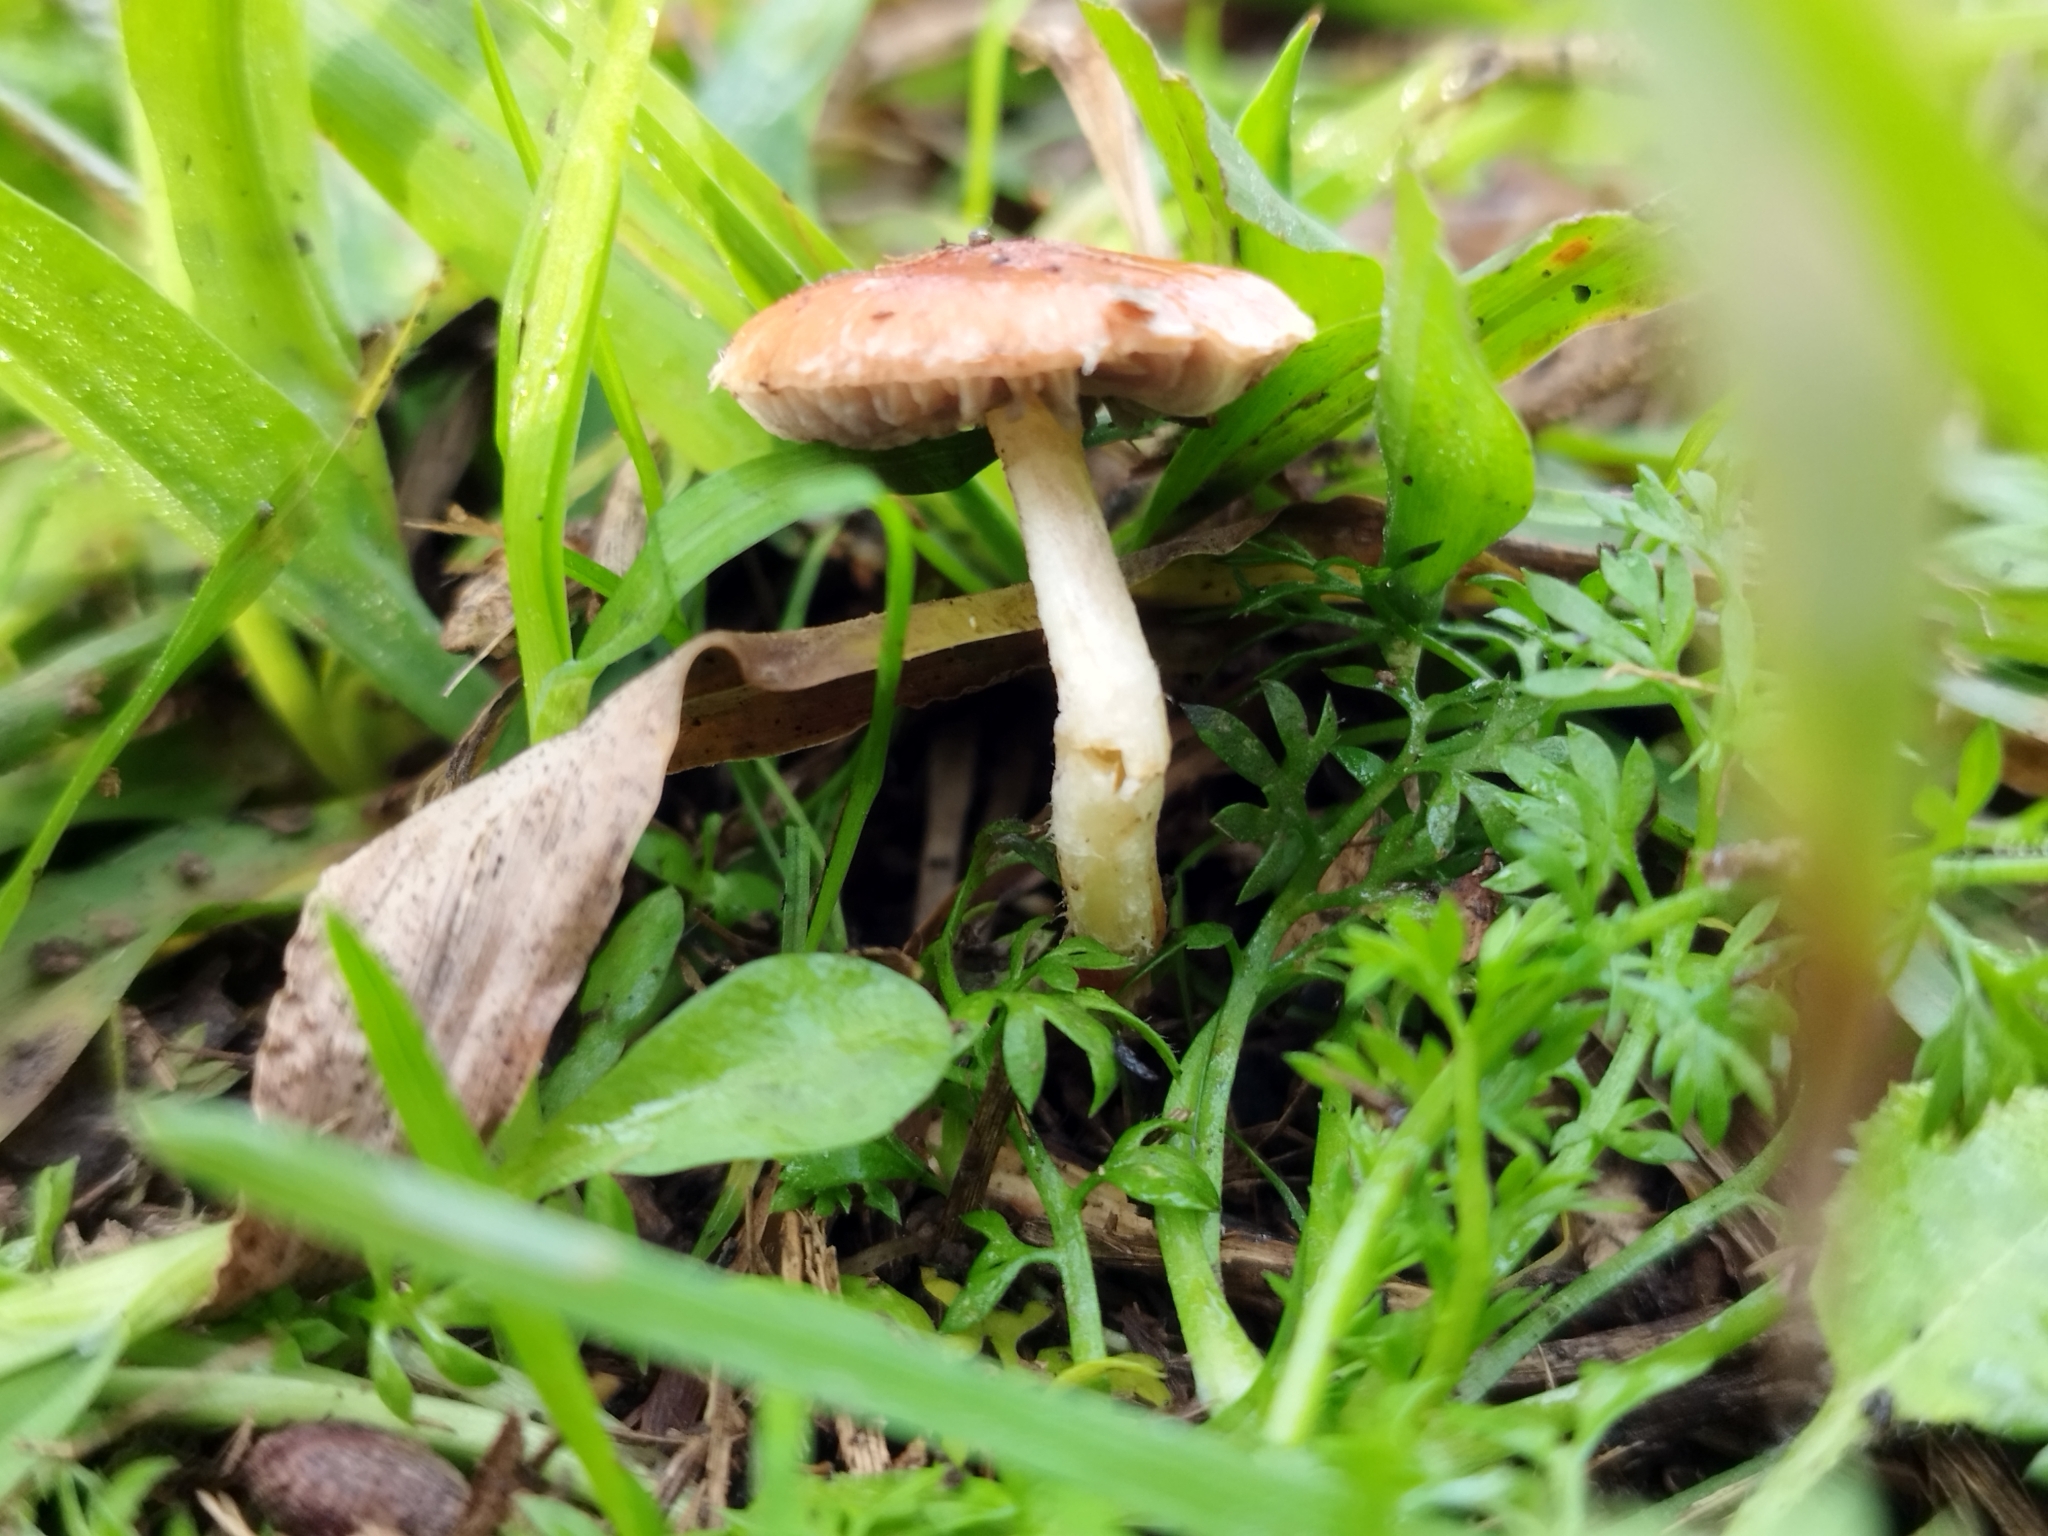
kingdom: Fungi
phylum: Basidiomycota
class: Agaricomycetes
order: Agaricales
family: Strophariaceae
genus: Leratiomyces
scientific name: Leratiomyces ceres
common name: Redlead roundhead
